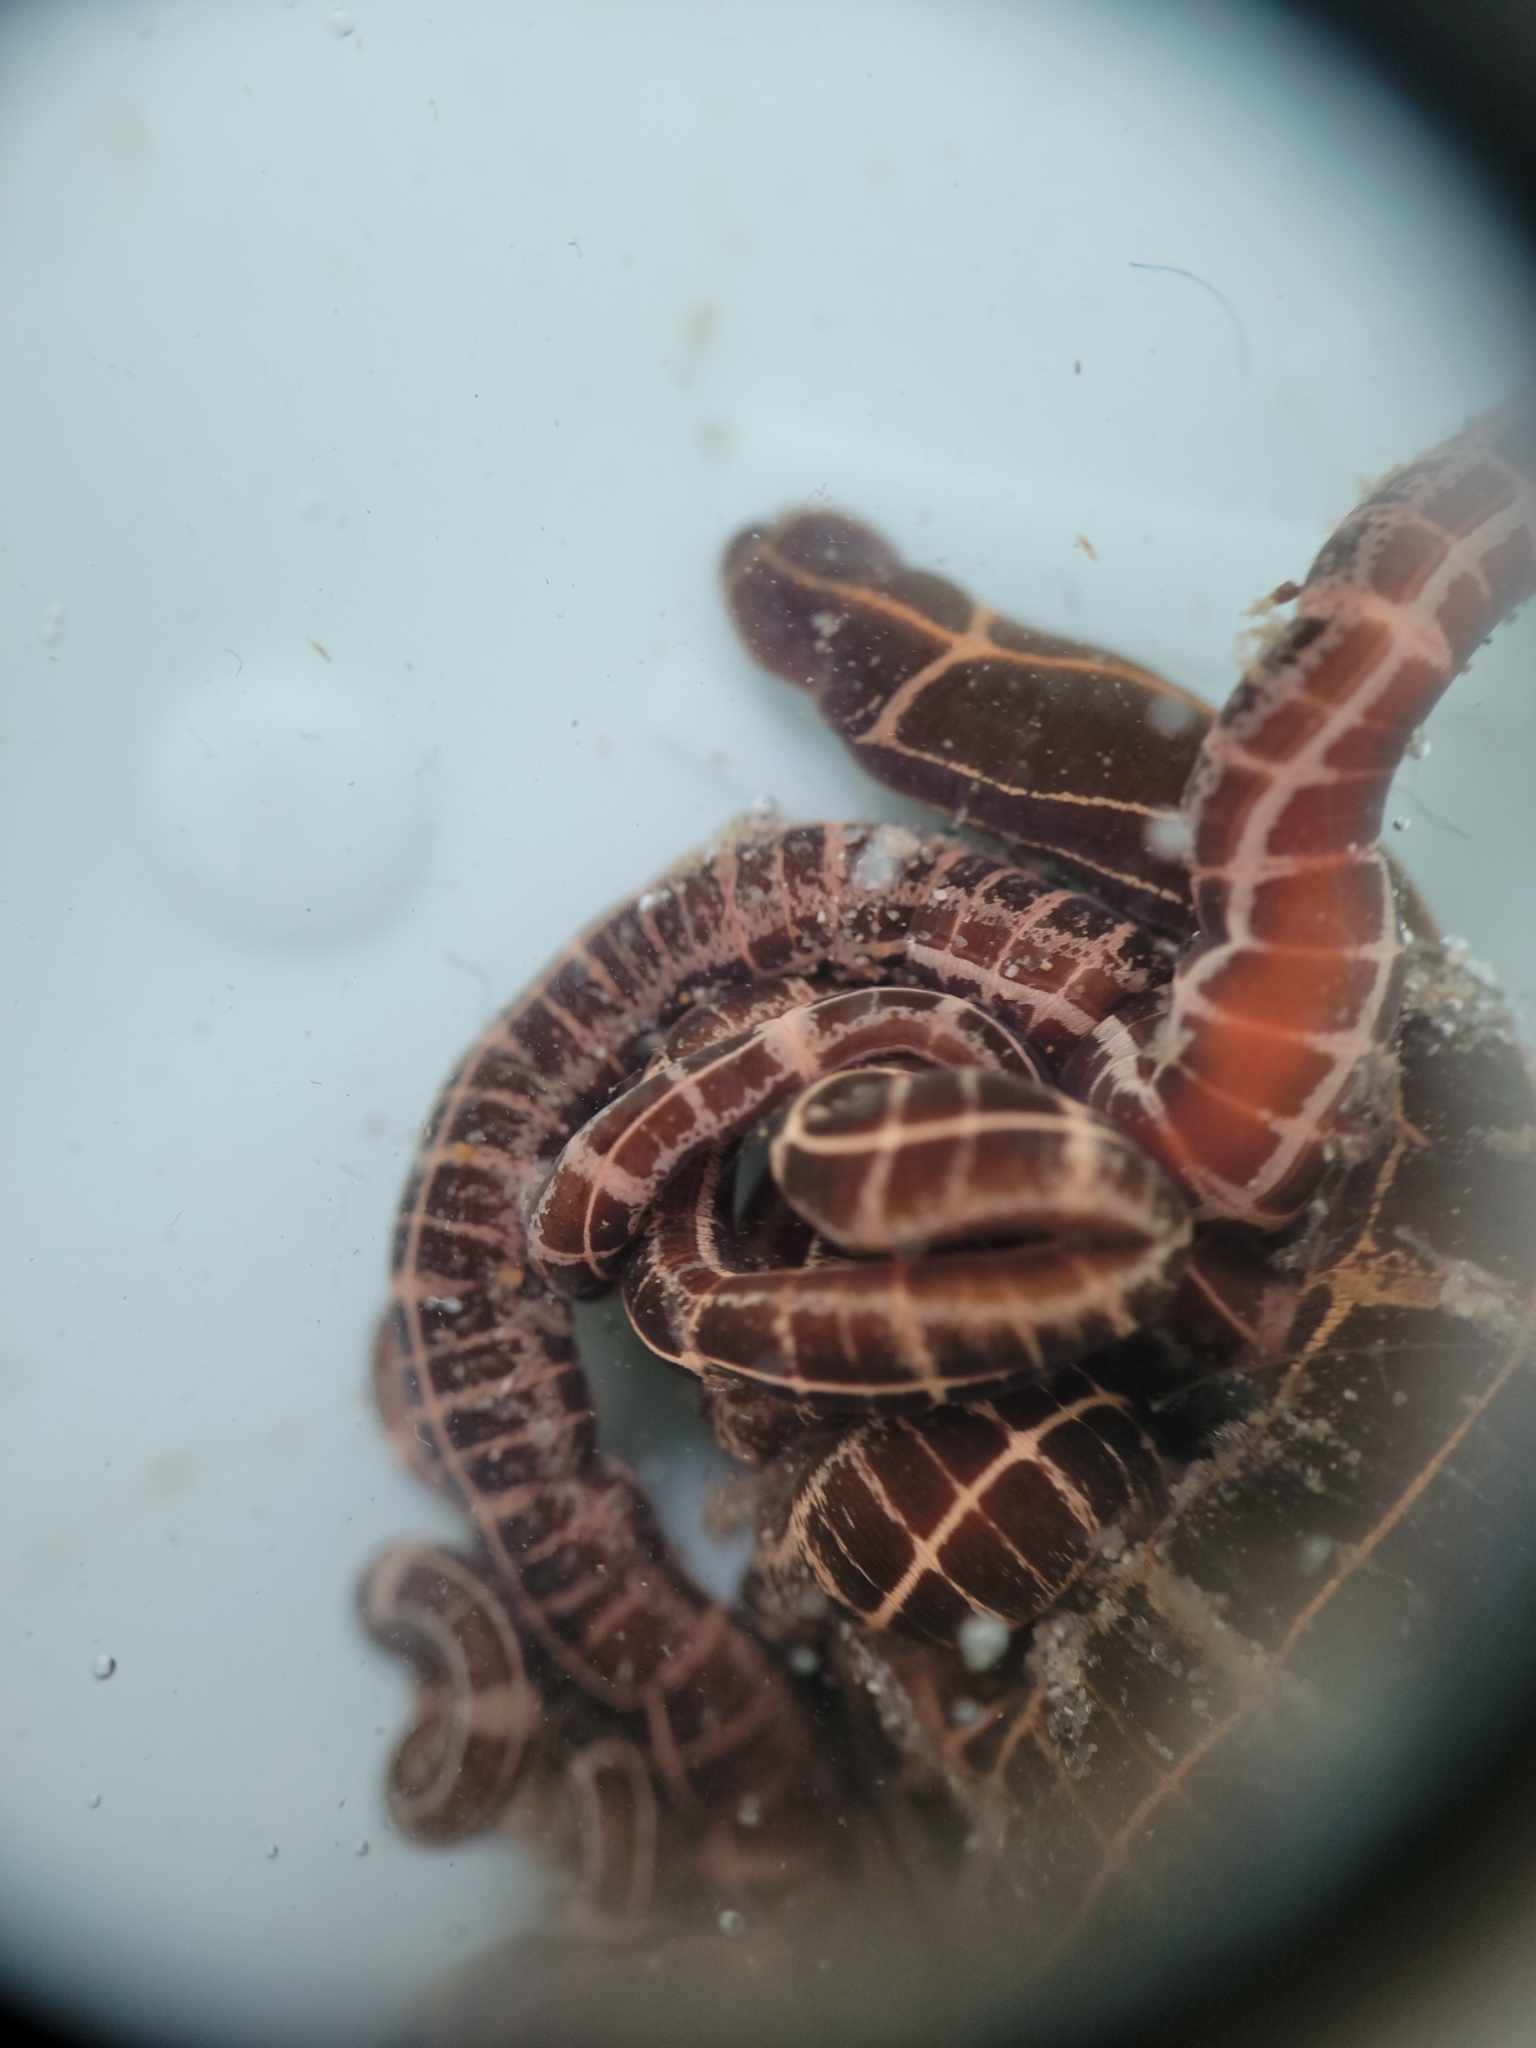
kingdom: Animalia
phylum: Nemertea
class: Palaeonemertea
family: Tubulanidae
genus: Tubulanus
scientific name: Tubulanus sexlineatus
